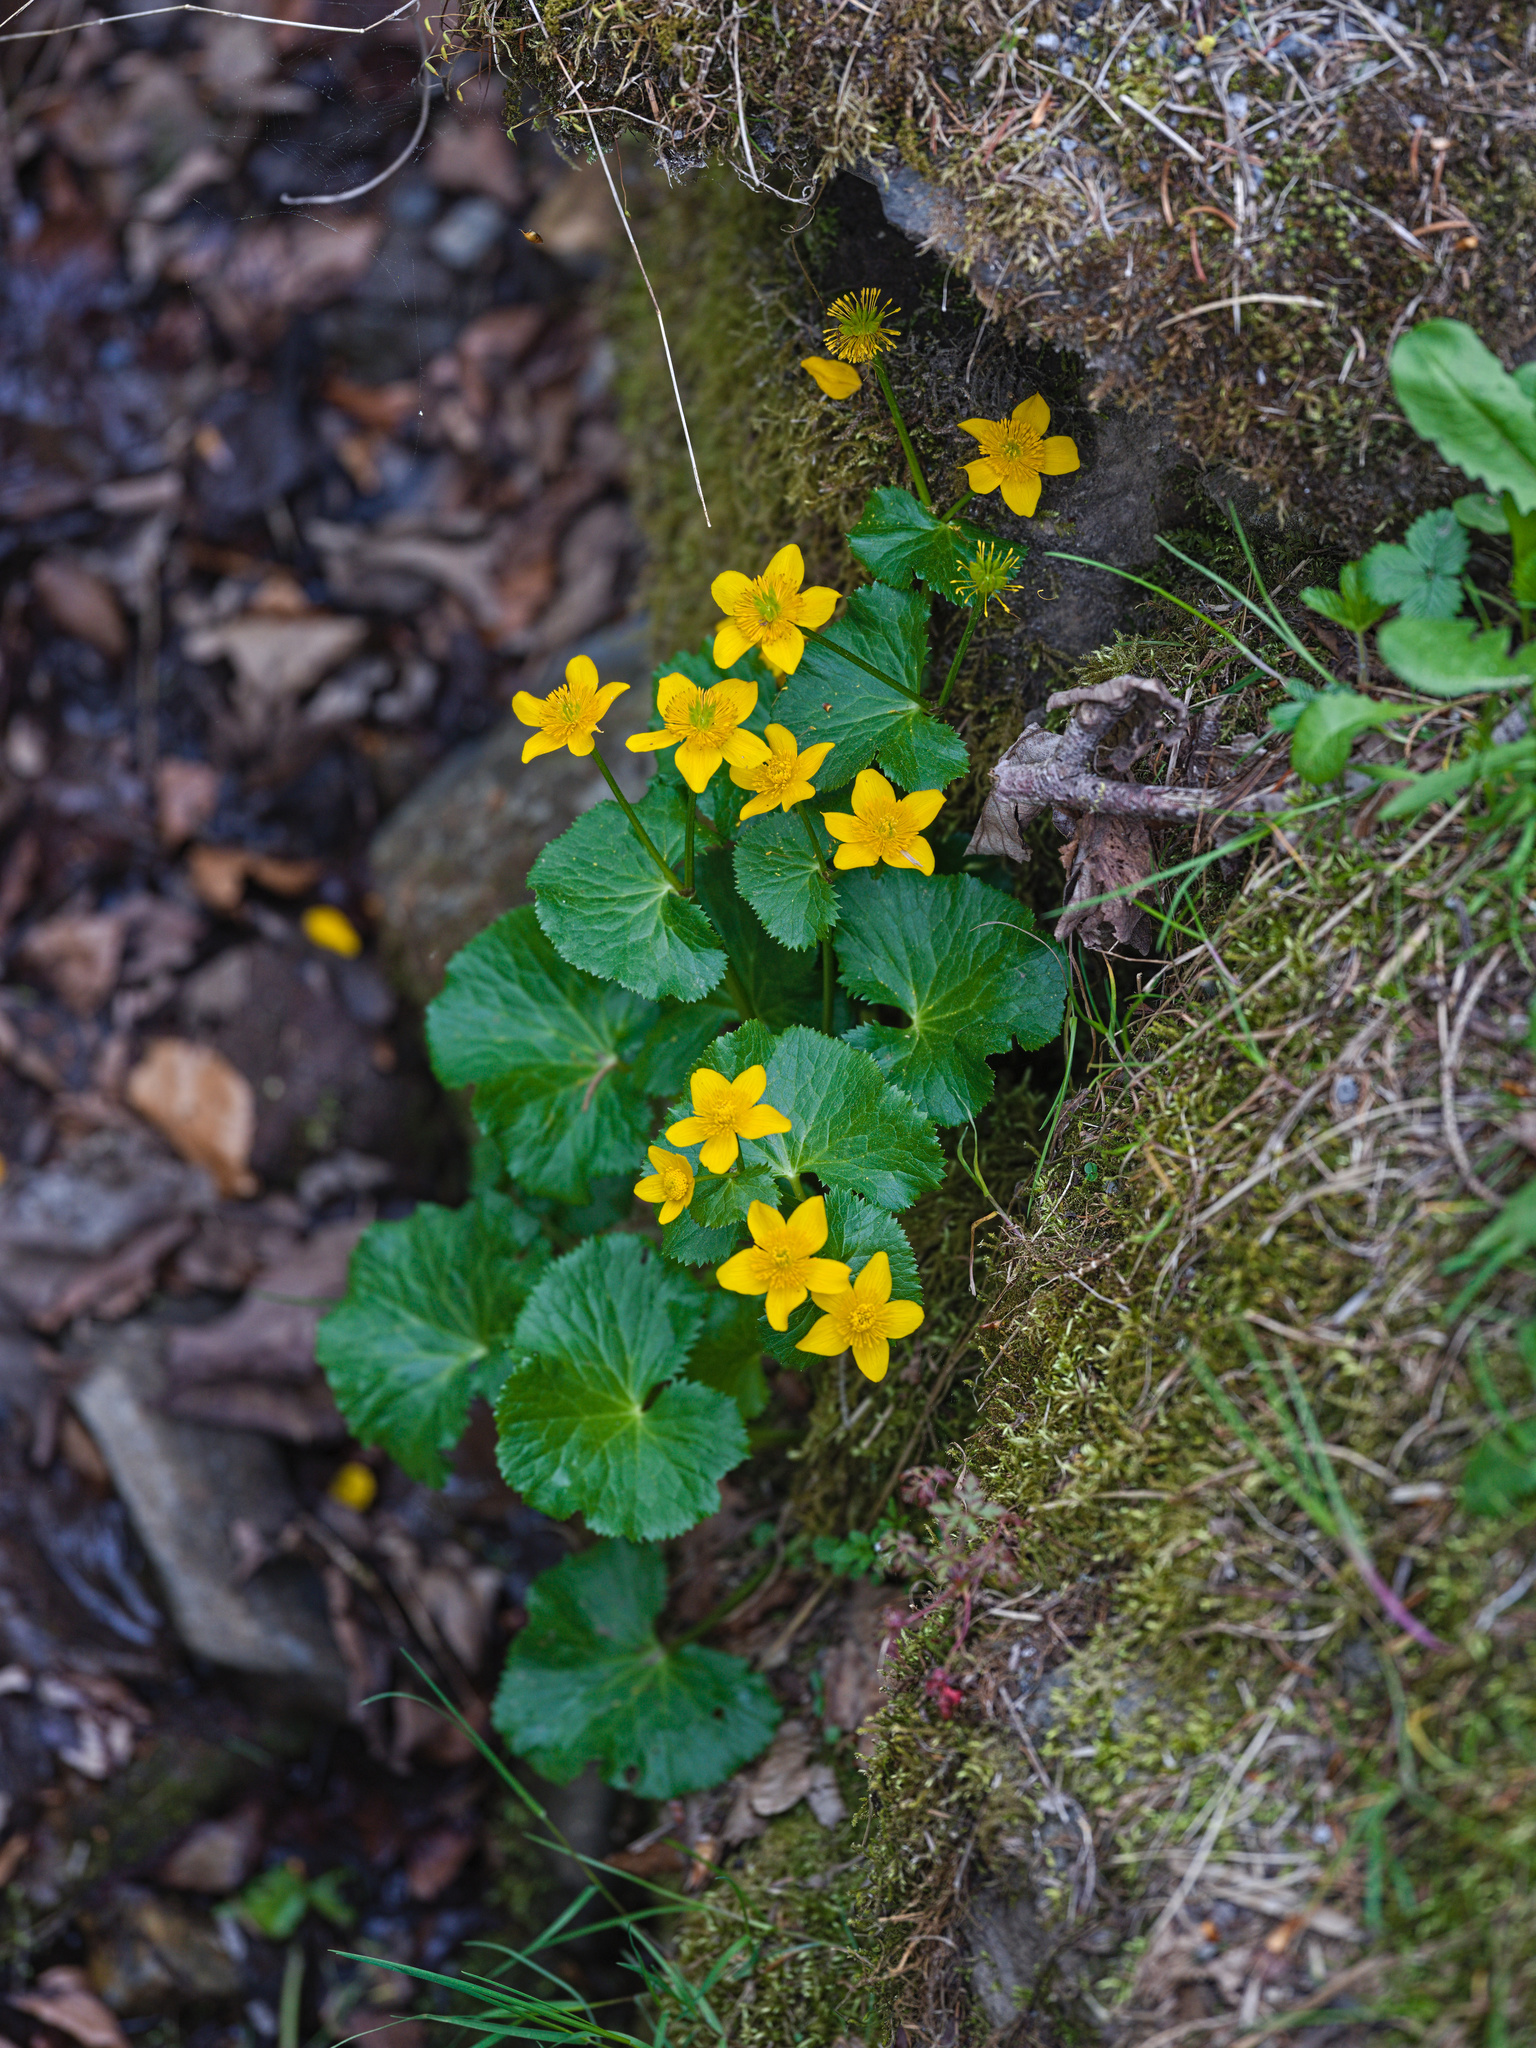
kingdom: Plantae
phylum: Tracheophyta
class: Magnoliopsida
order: Ranunculales
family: Ranunculaceae
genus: Caltha
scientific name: Caltha palustris
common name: Marsh marigold
